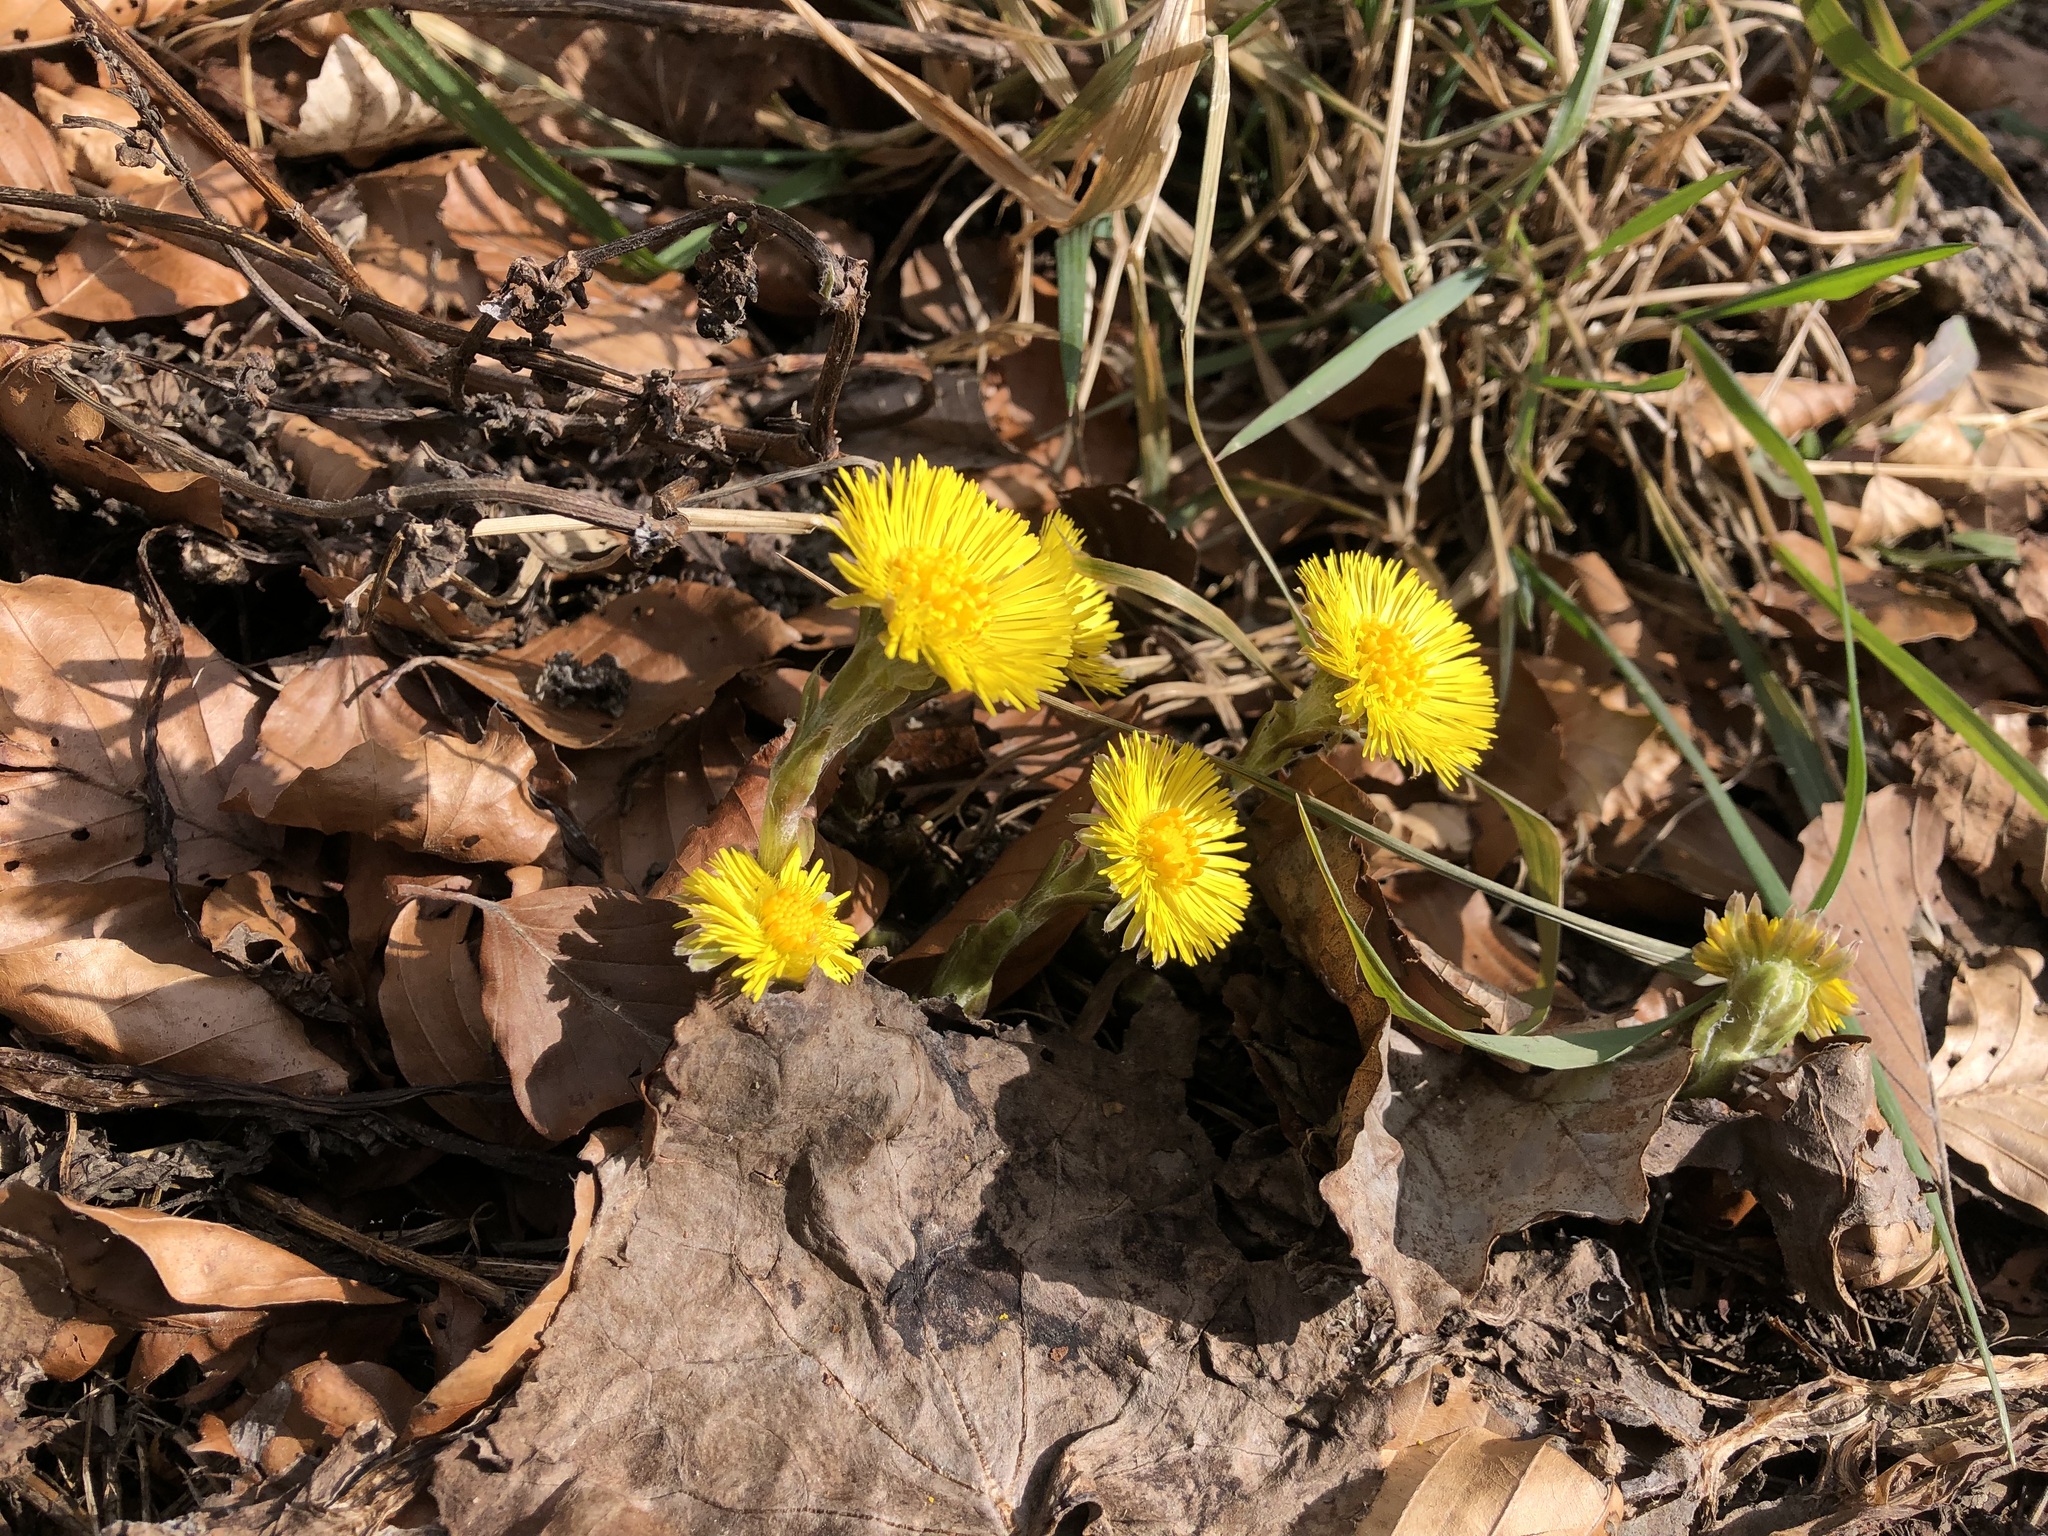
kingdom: Plantae
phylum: Tracheophyta
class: Magnoliopsida
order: Asterales
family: Asteraceae
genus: Tussilago
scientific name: Tussilago farfara
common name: Coltsfoot
